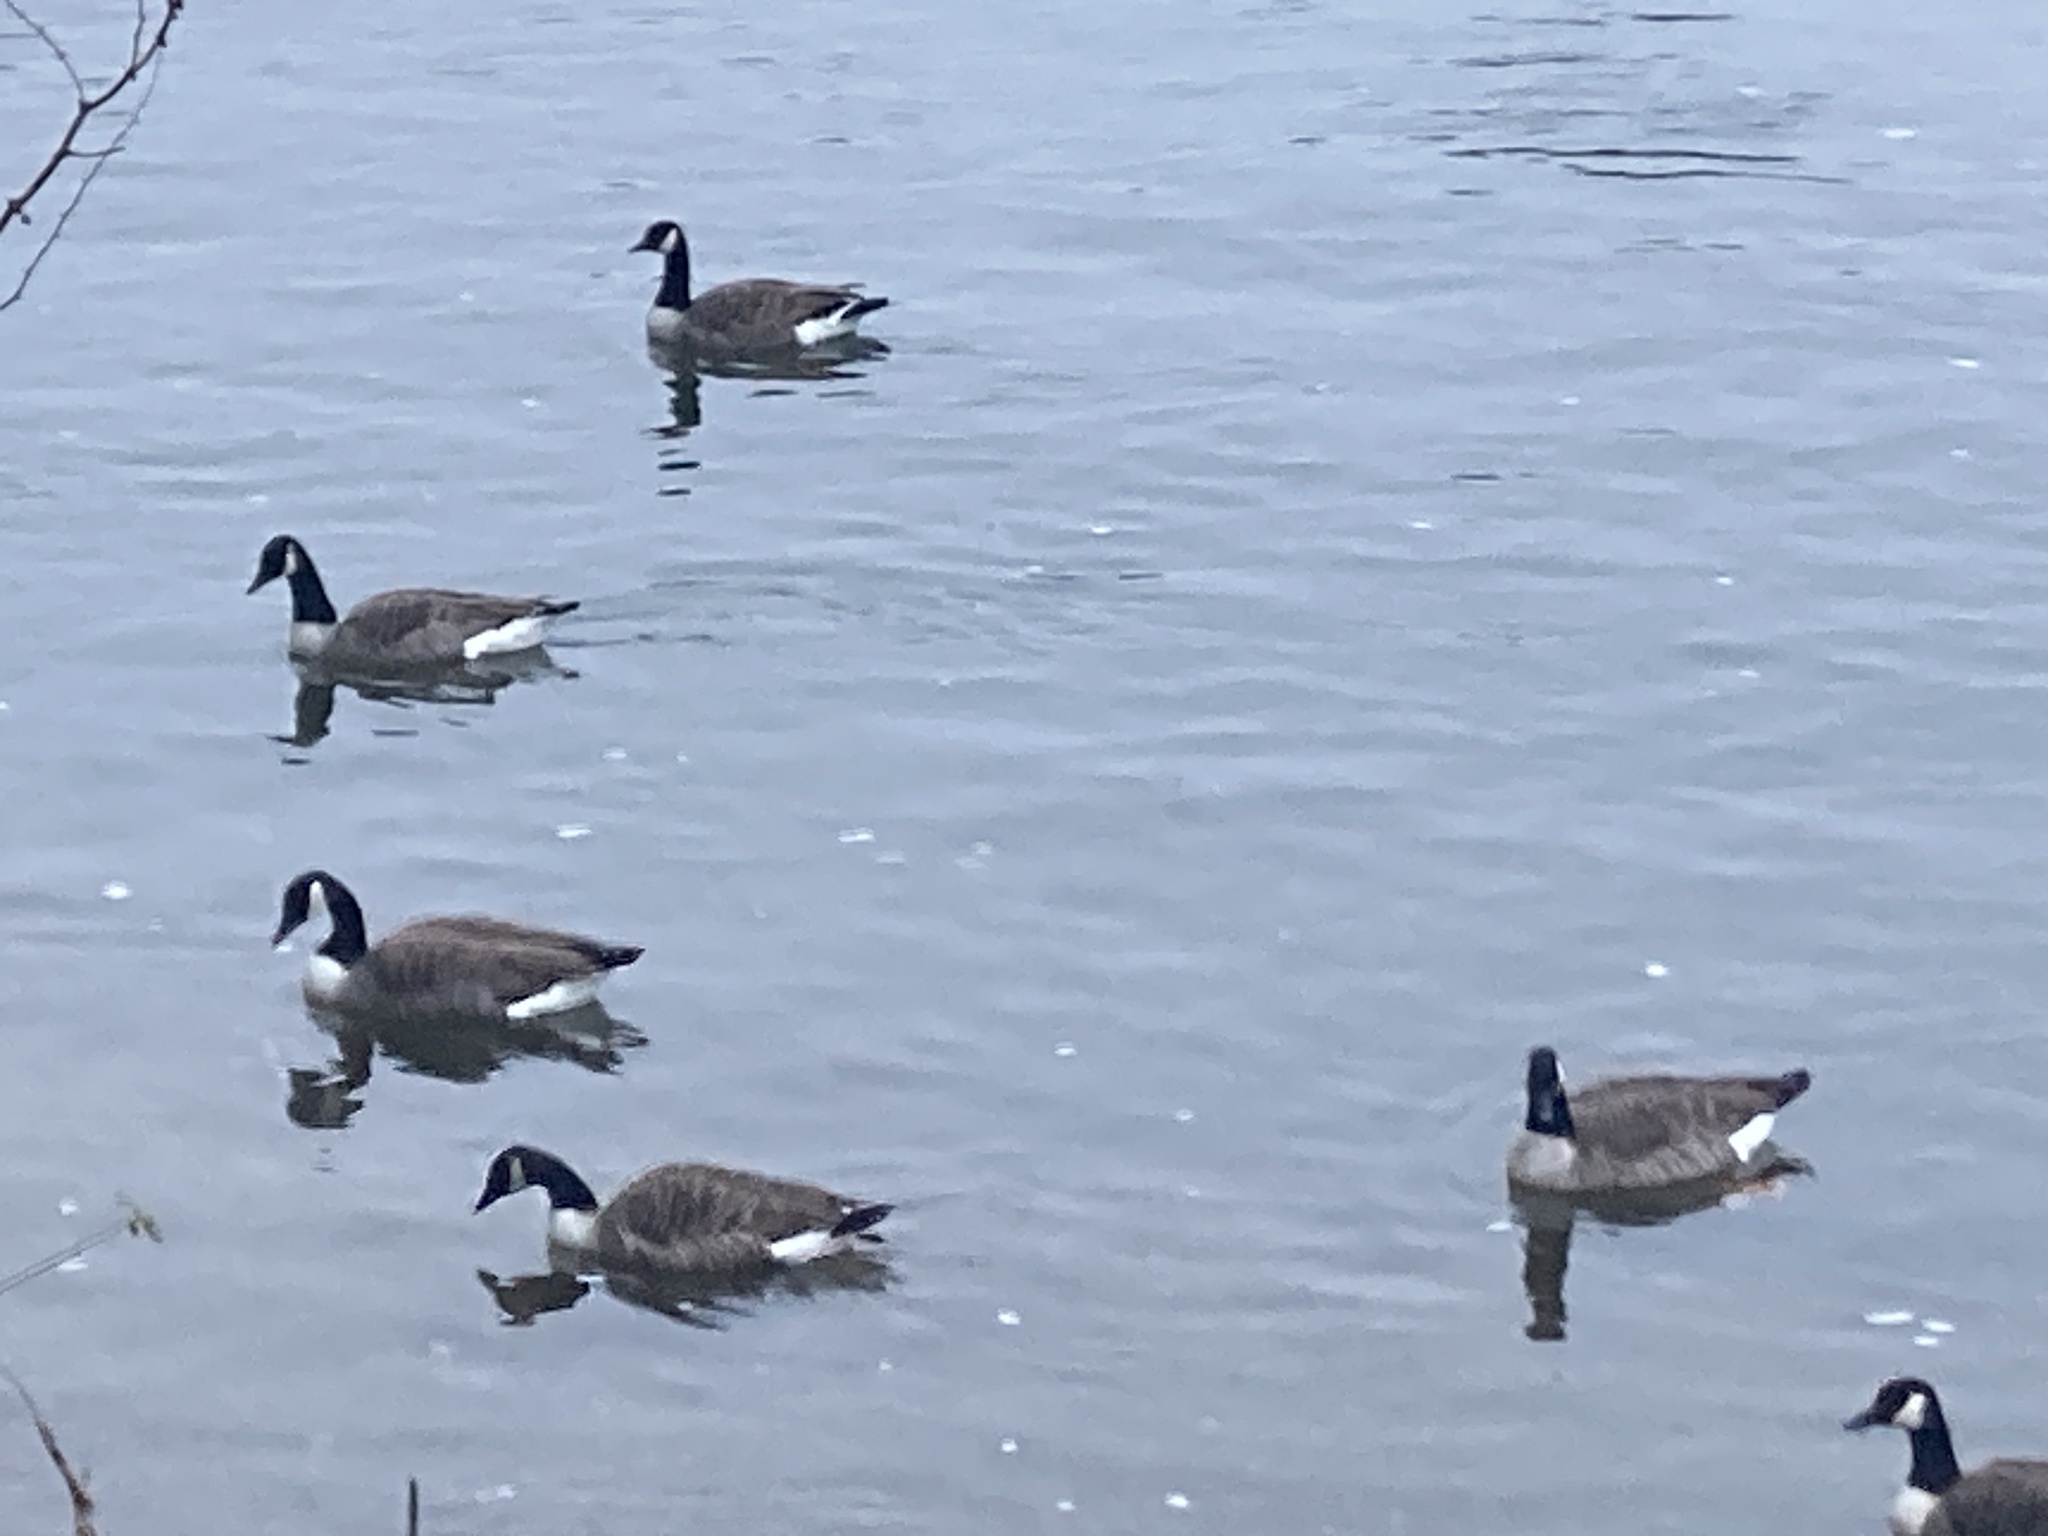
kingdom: Animalia
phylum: Chordata
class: Aves
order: Anseriformes
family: Anatidae
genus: Branta
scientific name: Branta canadensis
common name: Canada goose
